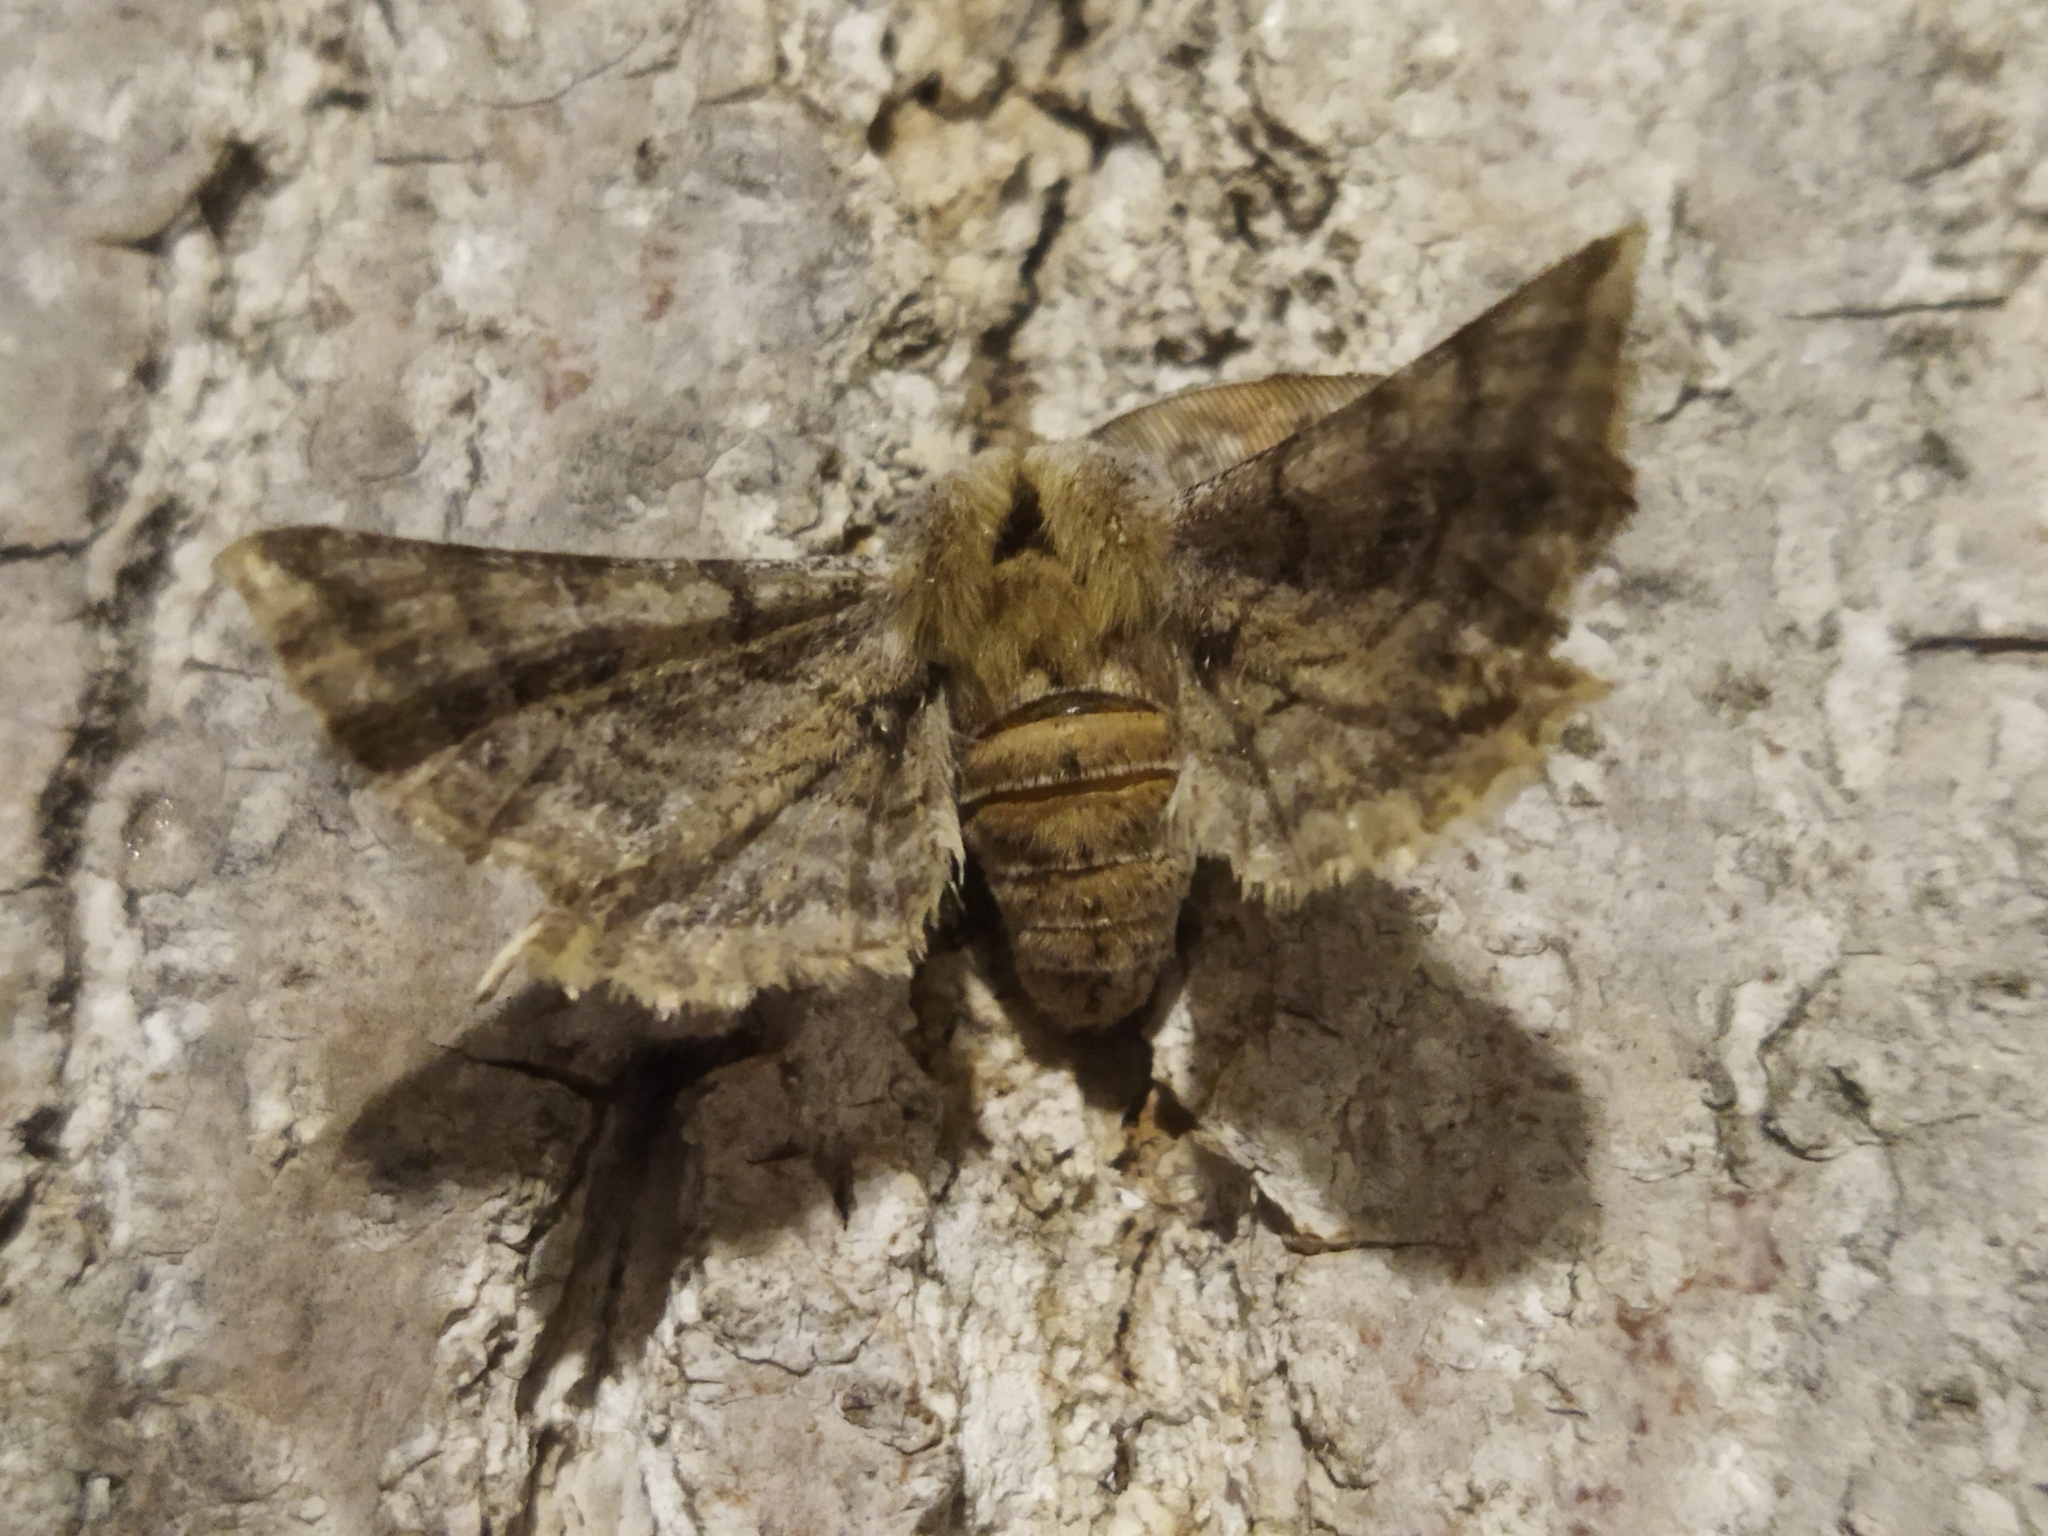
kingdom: Animalia
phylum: Arthropoda
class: Insecta
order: Lepidoptera
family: Geometridae
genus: Apochima
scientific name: Apochima flabellaria
